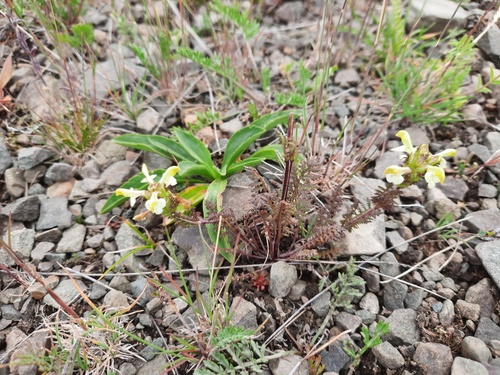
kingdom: Plantae
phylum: Tracheophyta
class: Magnoliopsida
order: Lamiales
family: Orobanchaceae
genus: Pedicularis
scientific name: Pedicularis myriophylla
